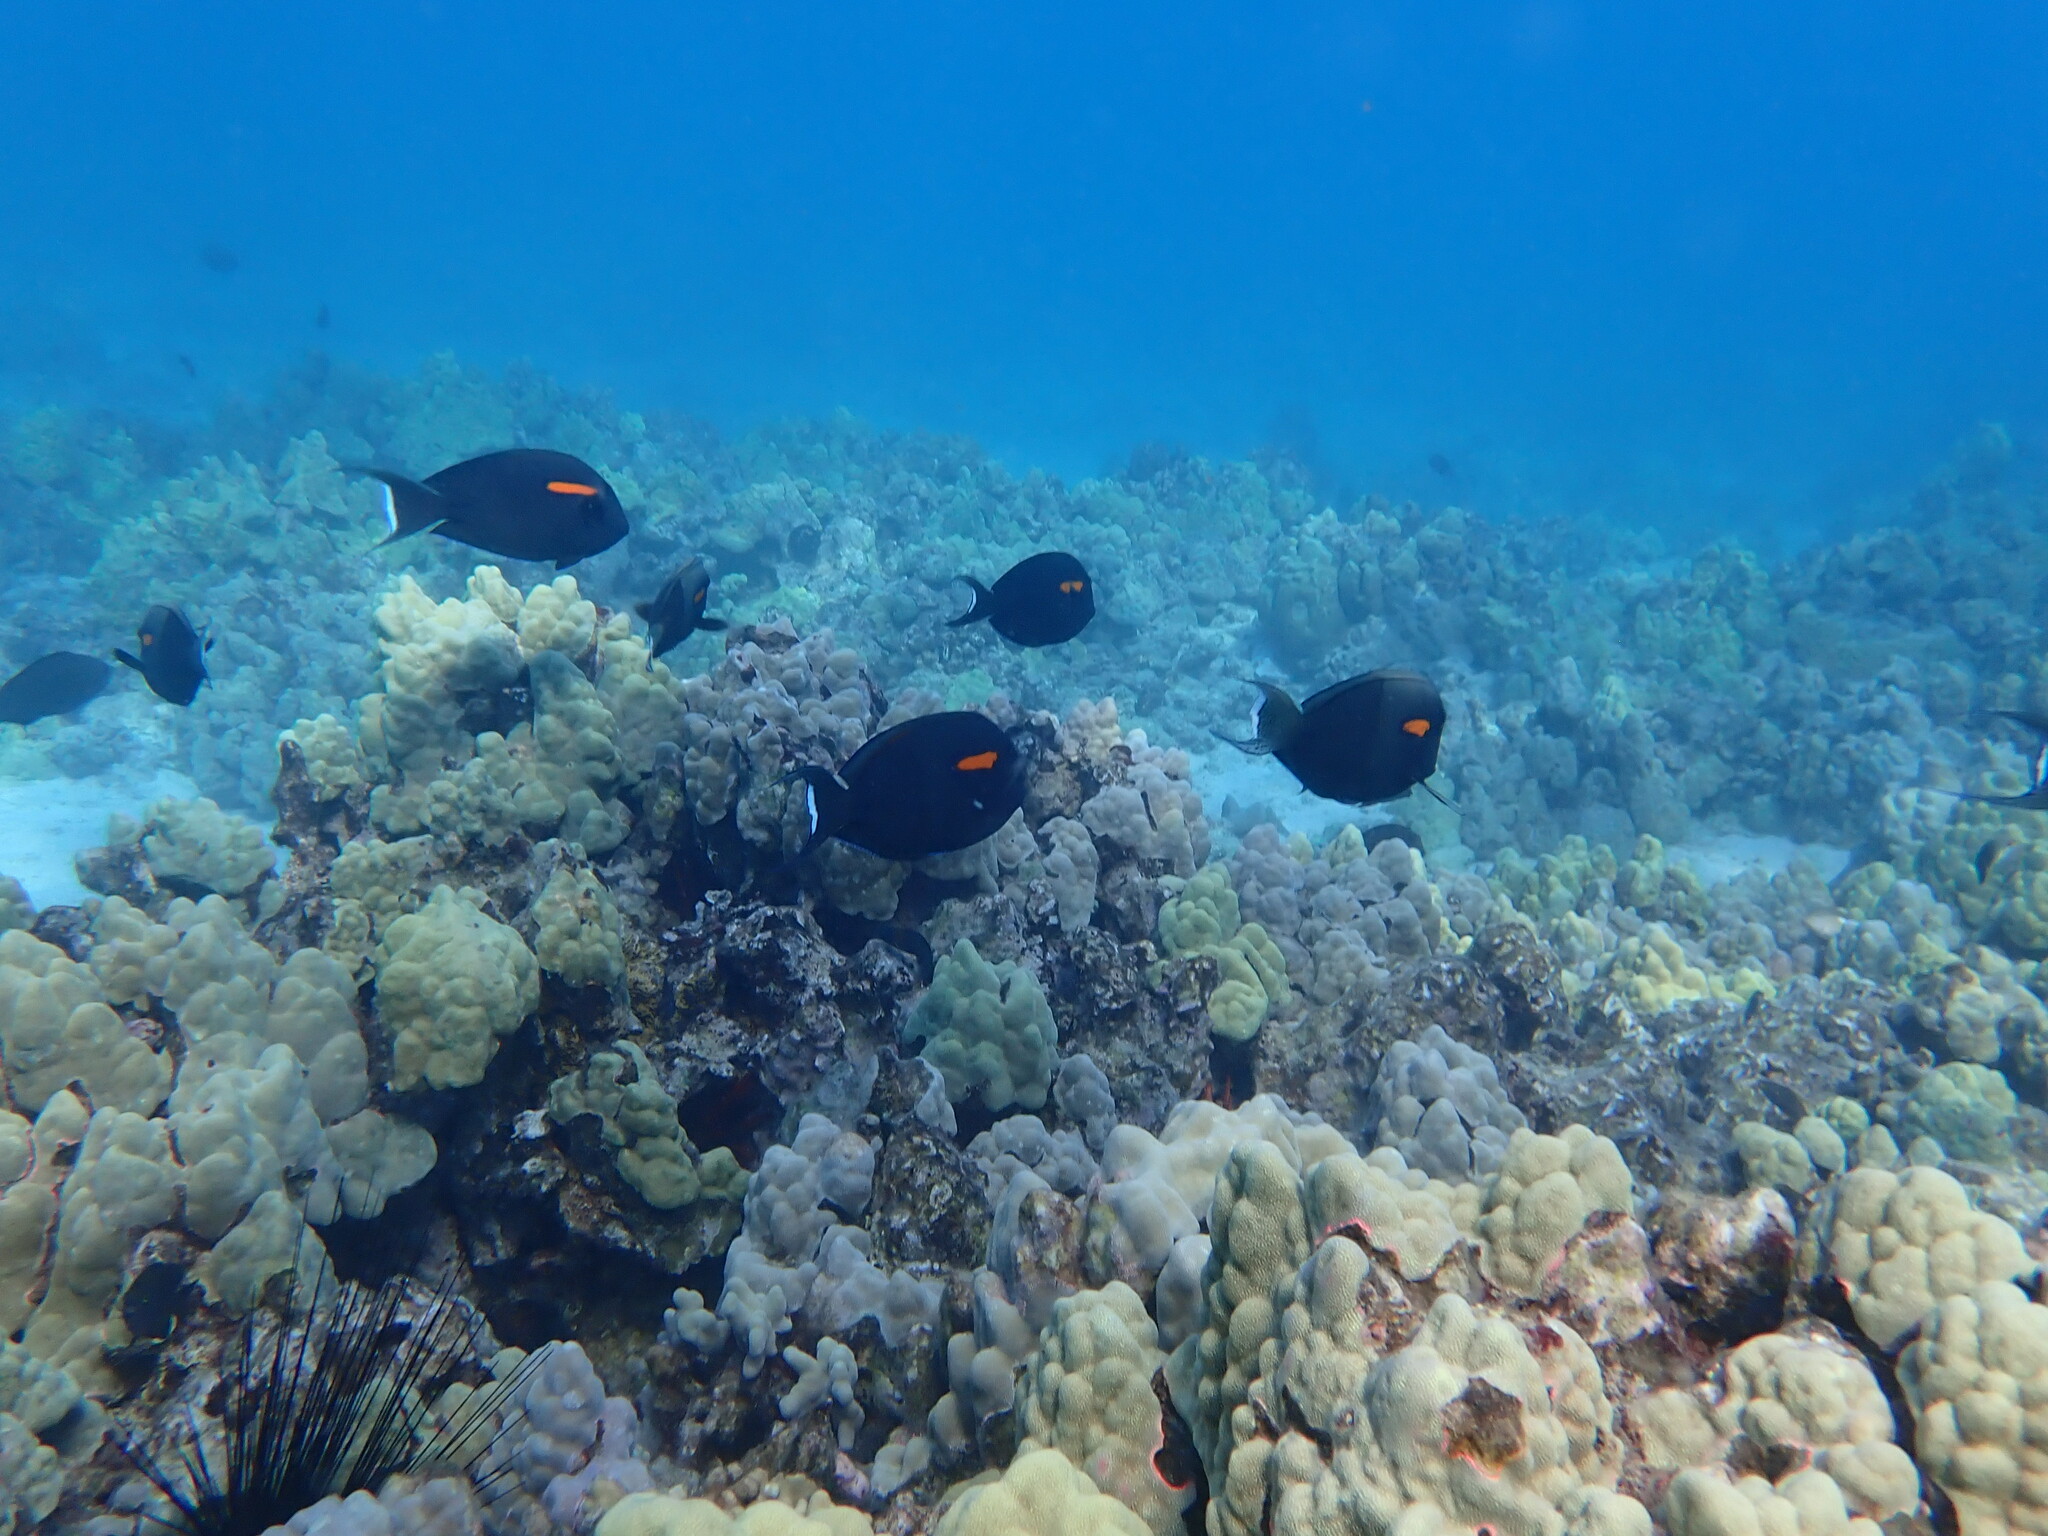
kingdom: Animalia
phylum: Chordata
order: Perciformes
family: Acanthuridae
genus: Acanthurus
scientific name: Acanthurus olivaceus
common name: Gendarme fish
